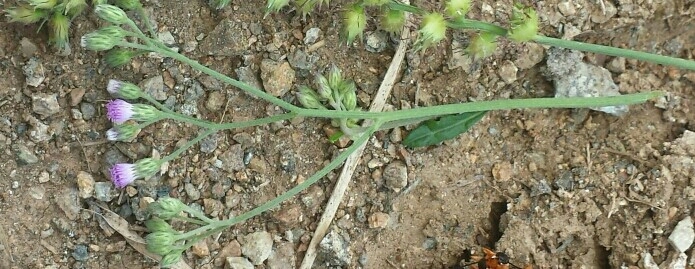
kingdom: Plantae
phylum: Tracheophyta
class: Magnoliopsida
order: Asterales
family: Asteraceae
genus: Cyanthillium
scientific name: Cyanthillium cinereum
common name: Little ironweed
